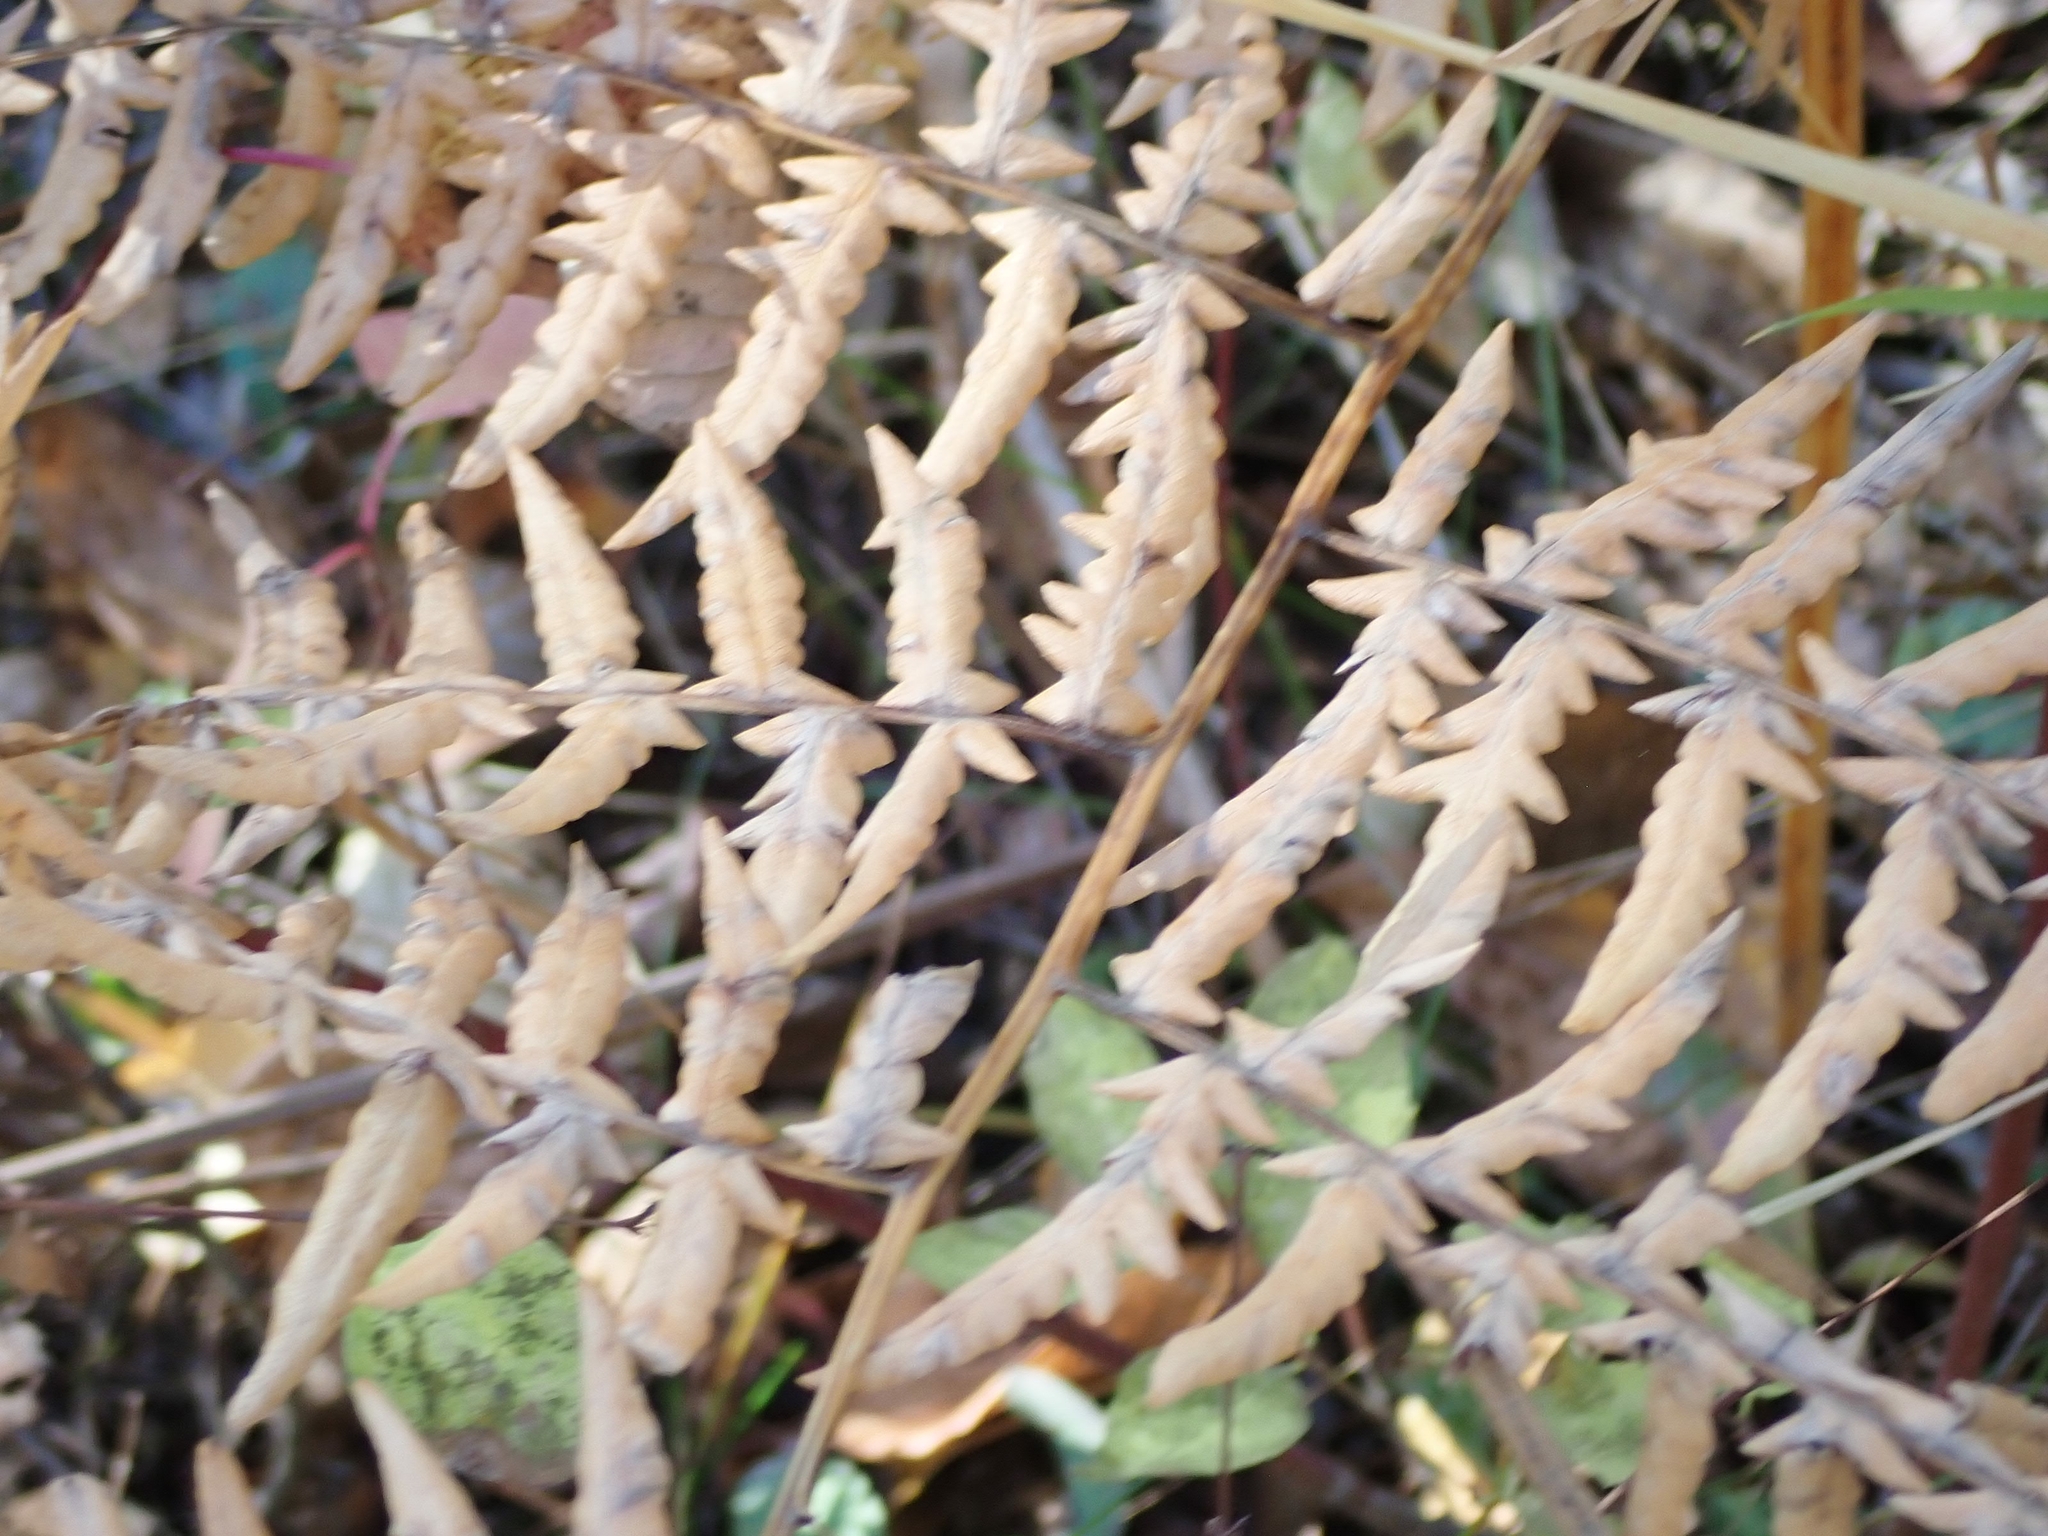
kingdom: Plantae
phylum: Tracheophyta
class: Polypodiopsida
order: Polypodiales
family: Dennstaedtiaceae
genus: Pteridium
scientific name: Pteridium aquilinum
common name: Bracken
